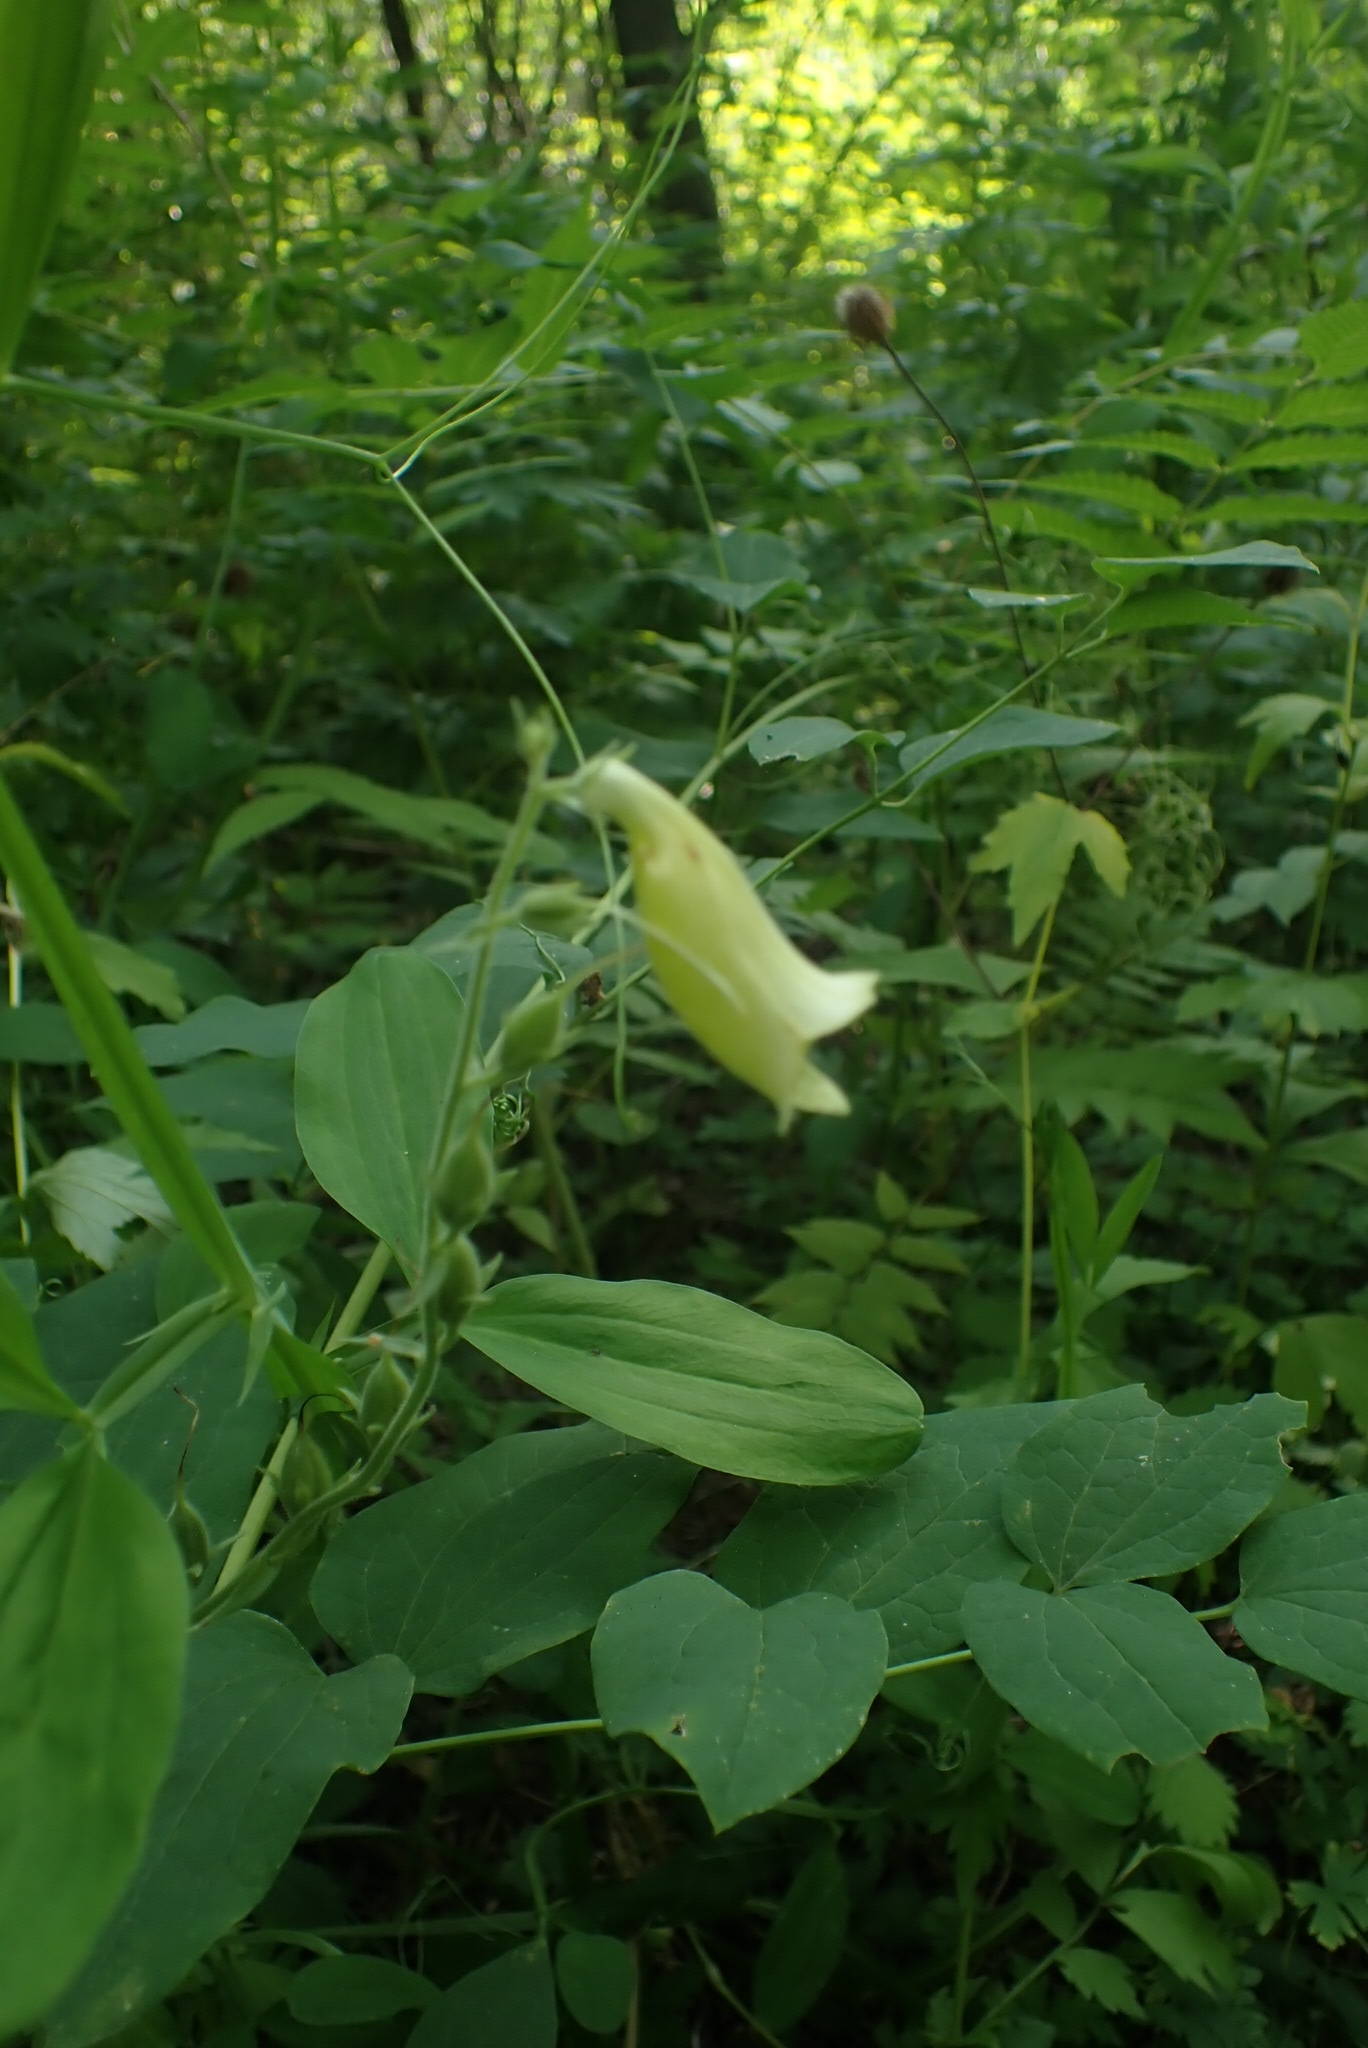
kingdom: Plantae
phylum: Tracheophyta
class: Magnoliopsida
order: Lamiales
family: Plantaginaceae
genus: Digitalis
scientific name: Digitalis grandiflora
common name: Yellow foxglove
